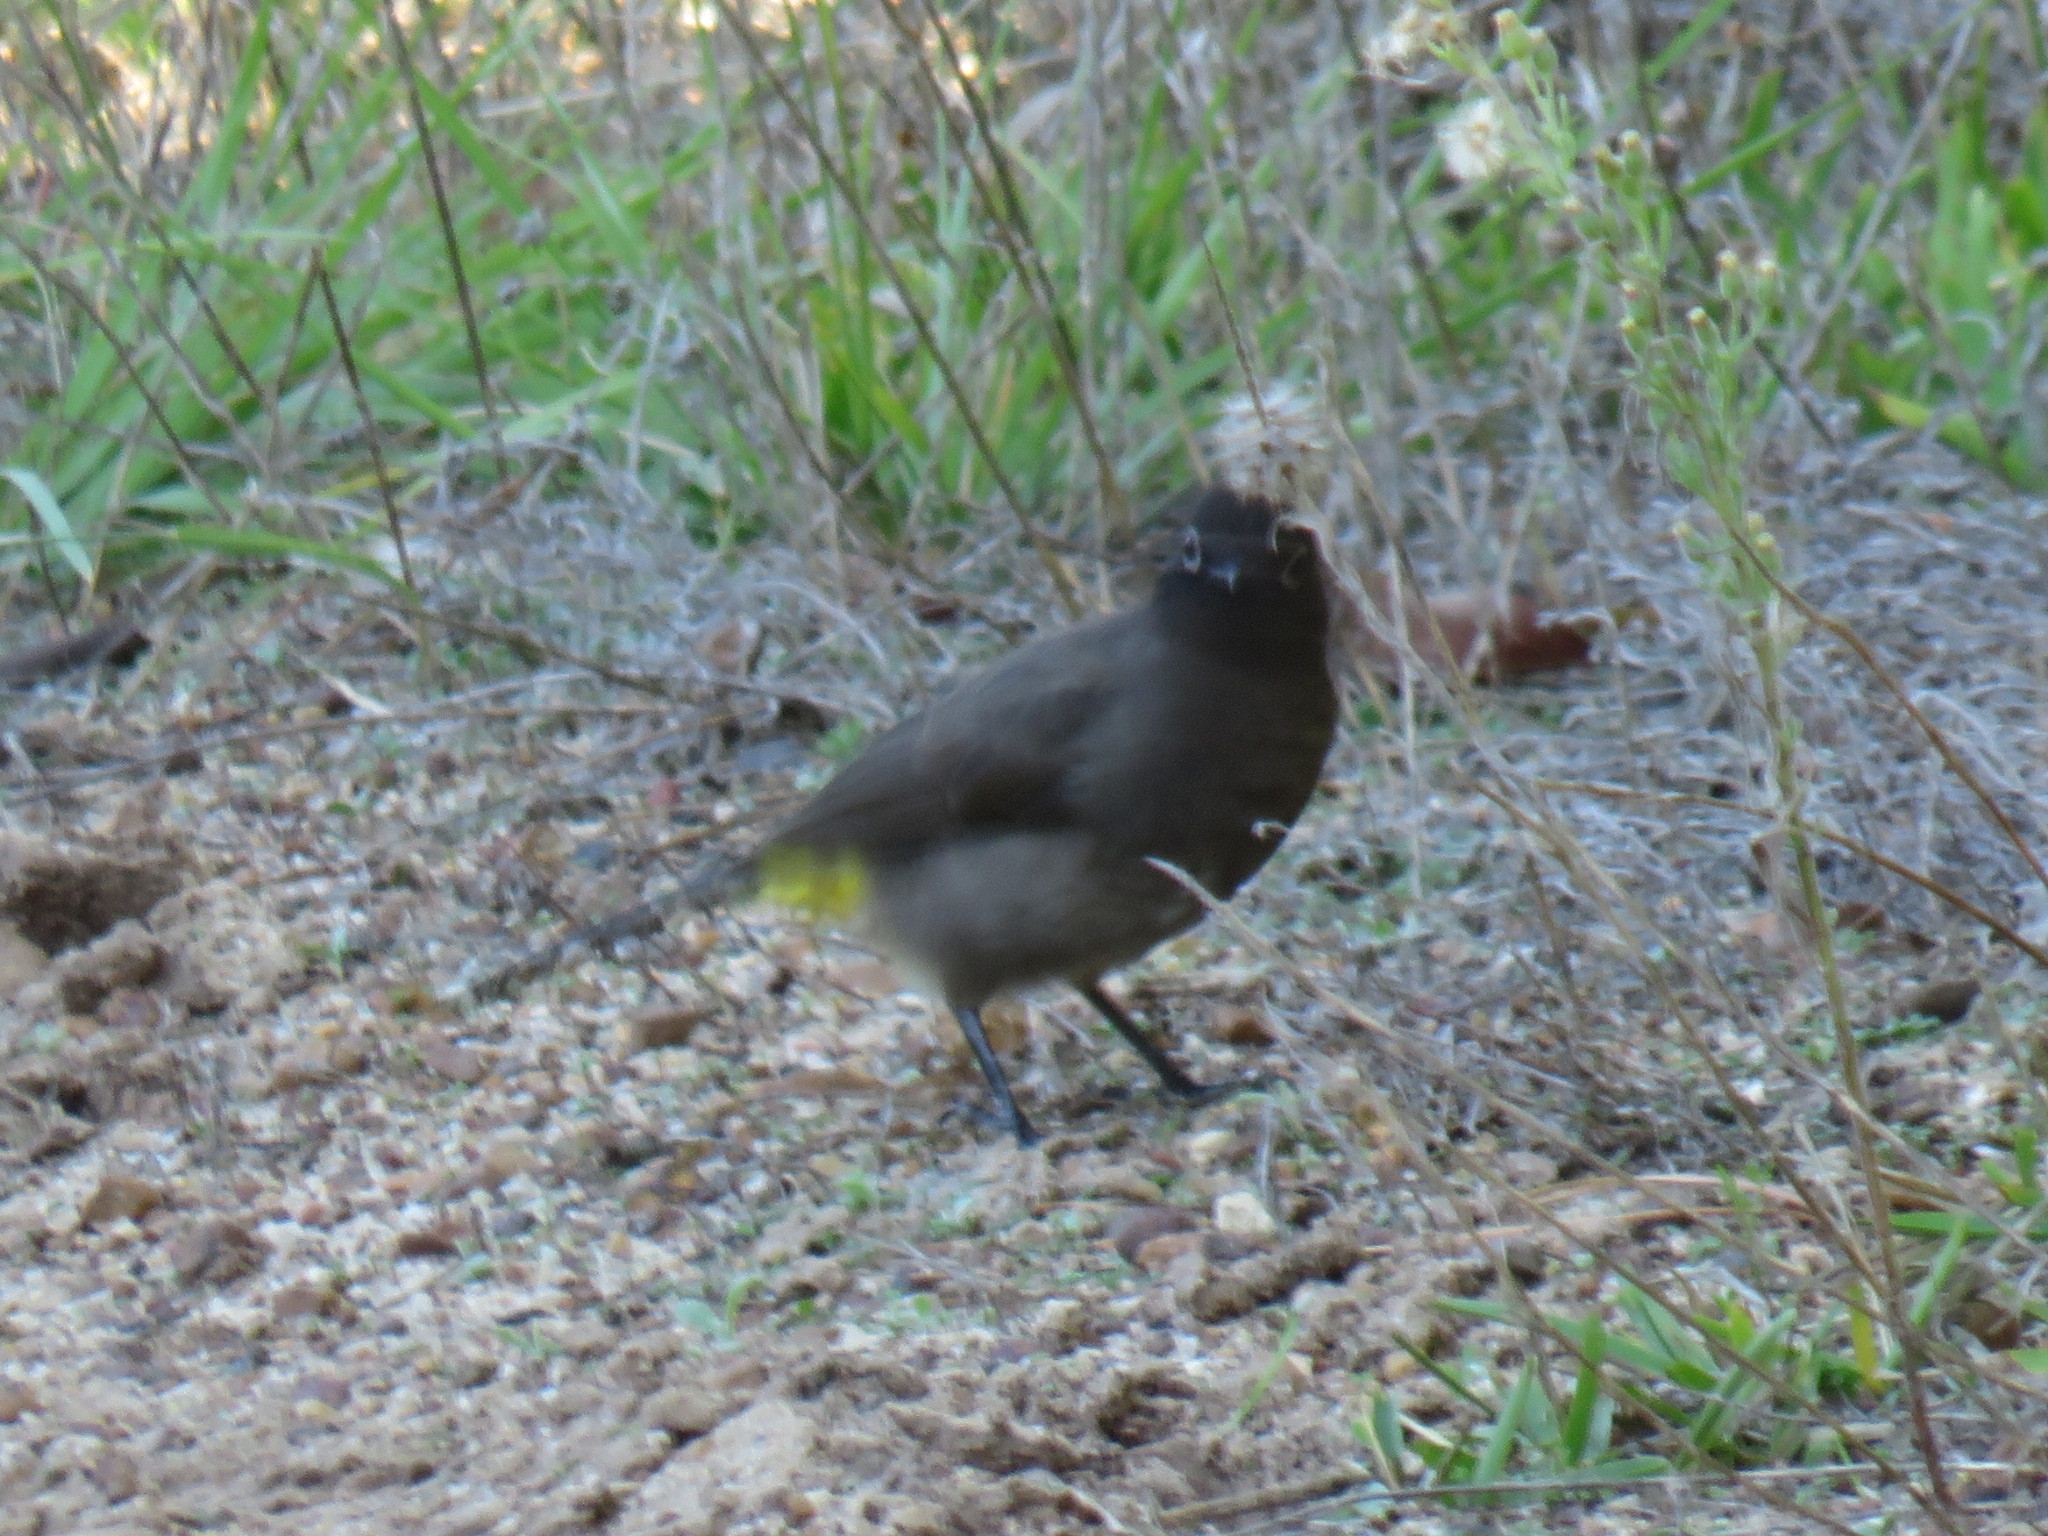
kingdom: Animalia
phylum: Chordata
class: Aves
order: Passeriformes
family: Pycnonotidae
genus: Pycnonotus
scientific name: Pycnonotus capensis
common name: Cape bulbul
